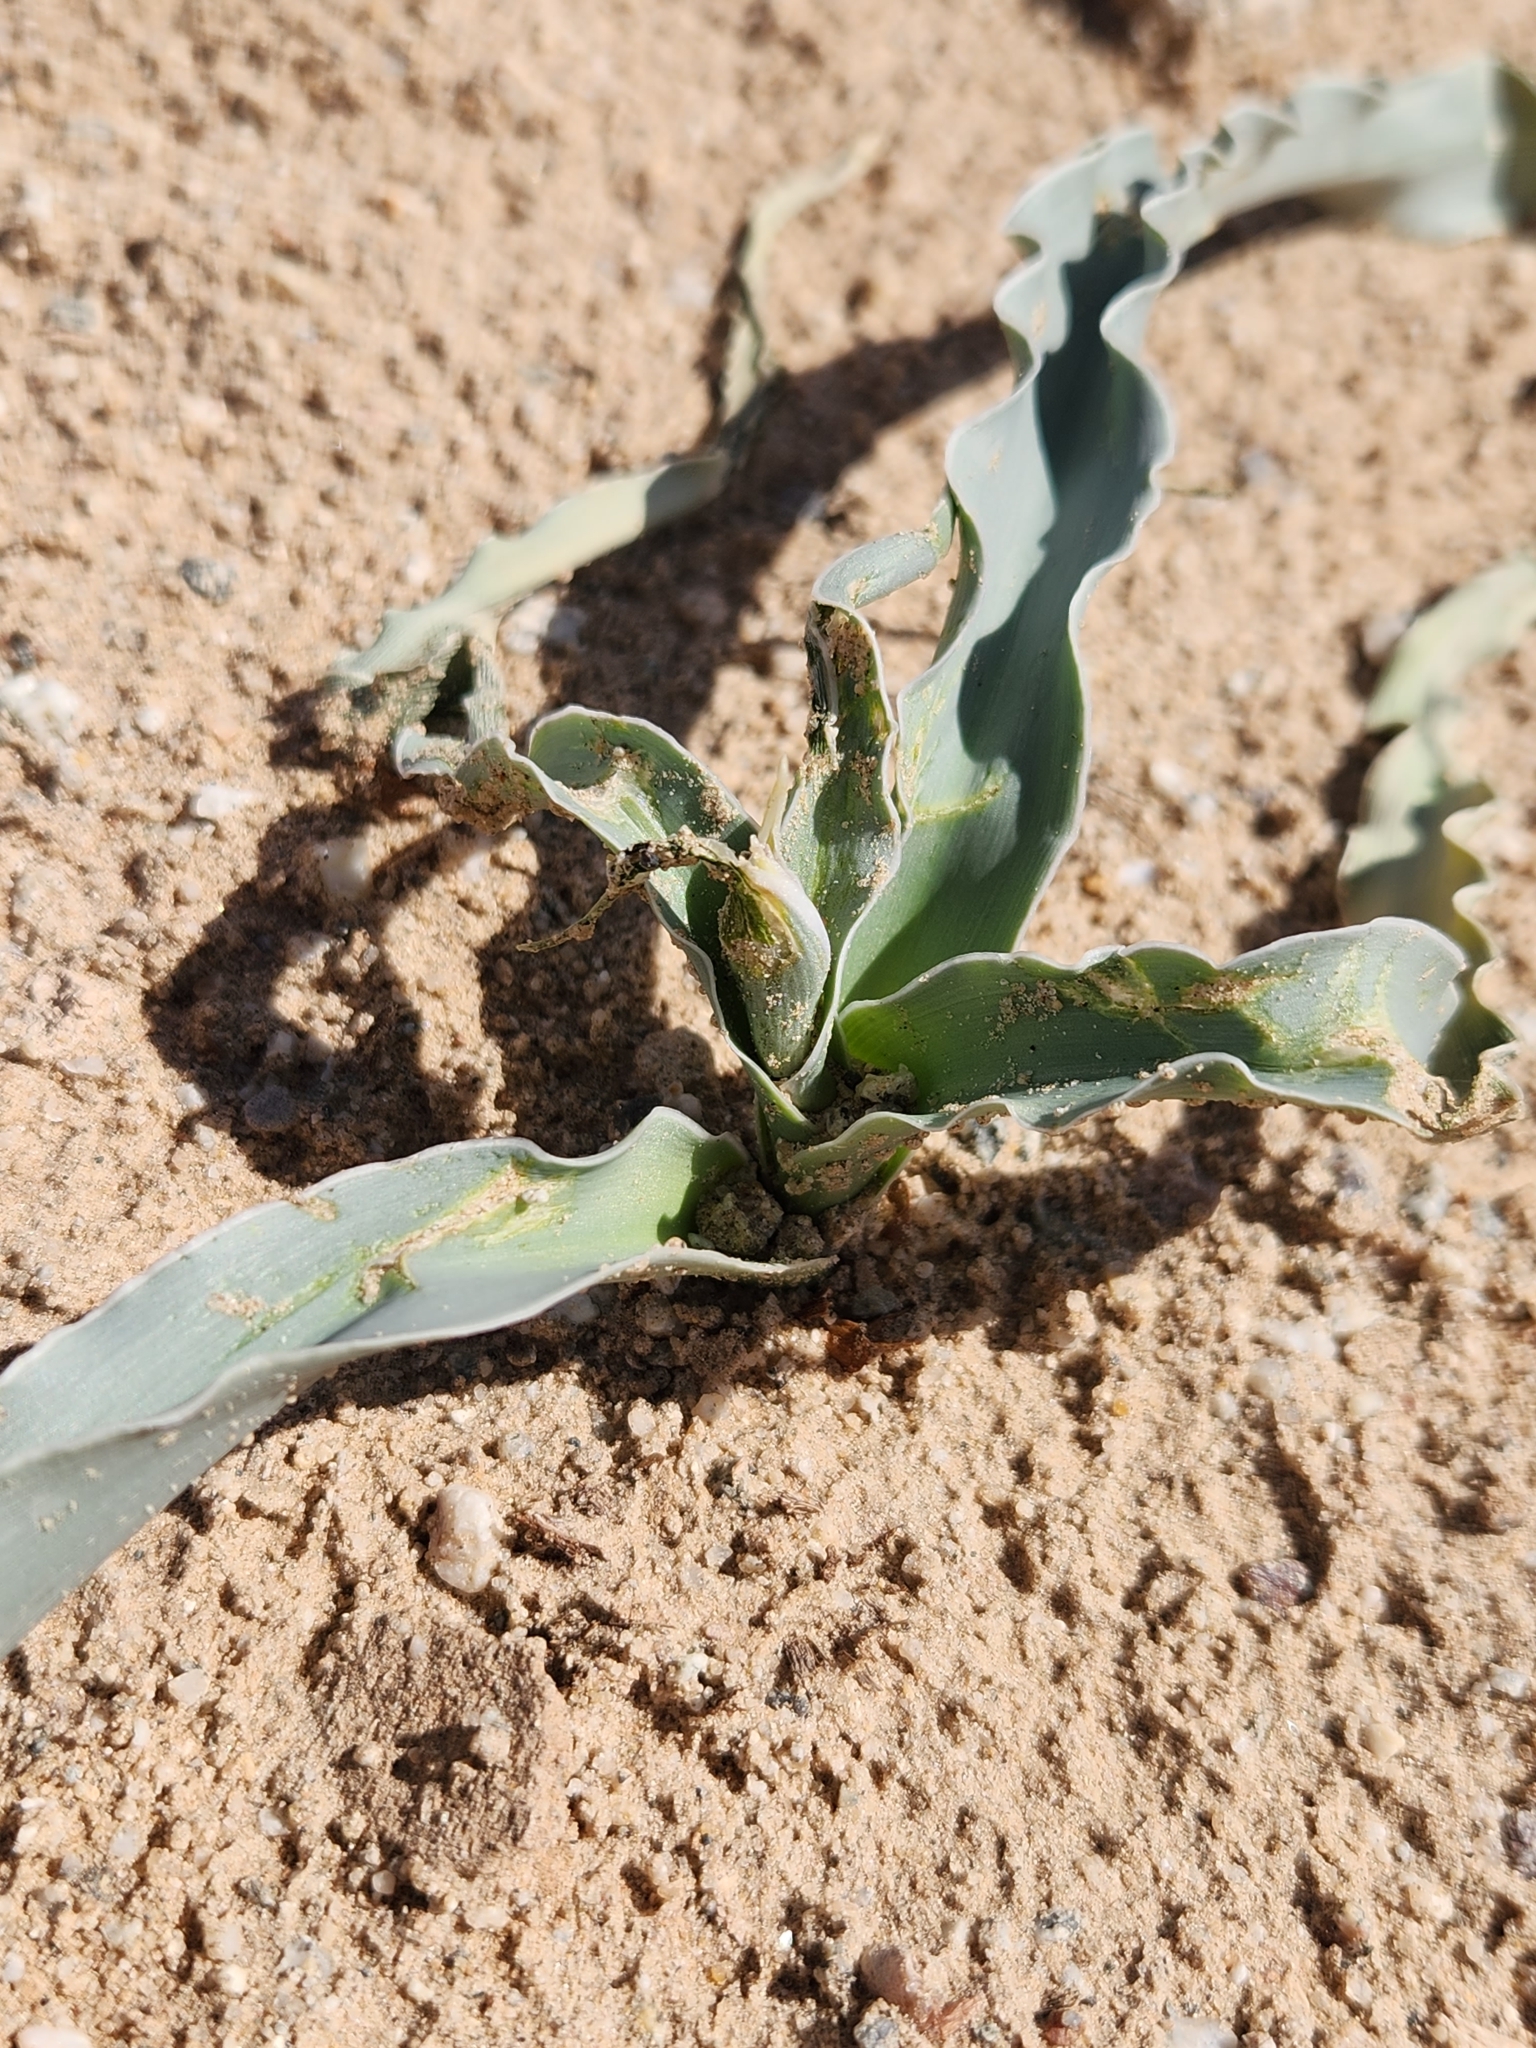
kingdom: Plantae
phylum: Tracheophyta
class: Liliopsida
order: Asparagales
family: Asparagaceae
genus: Hesperocallis
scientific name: Hesperocallis undulata
